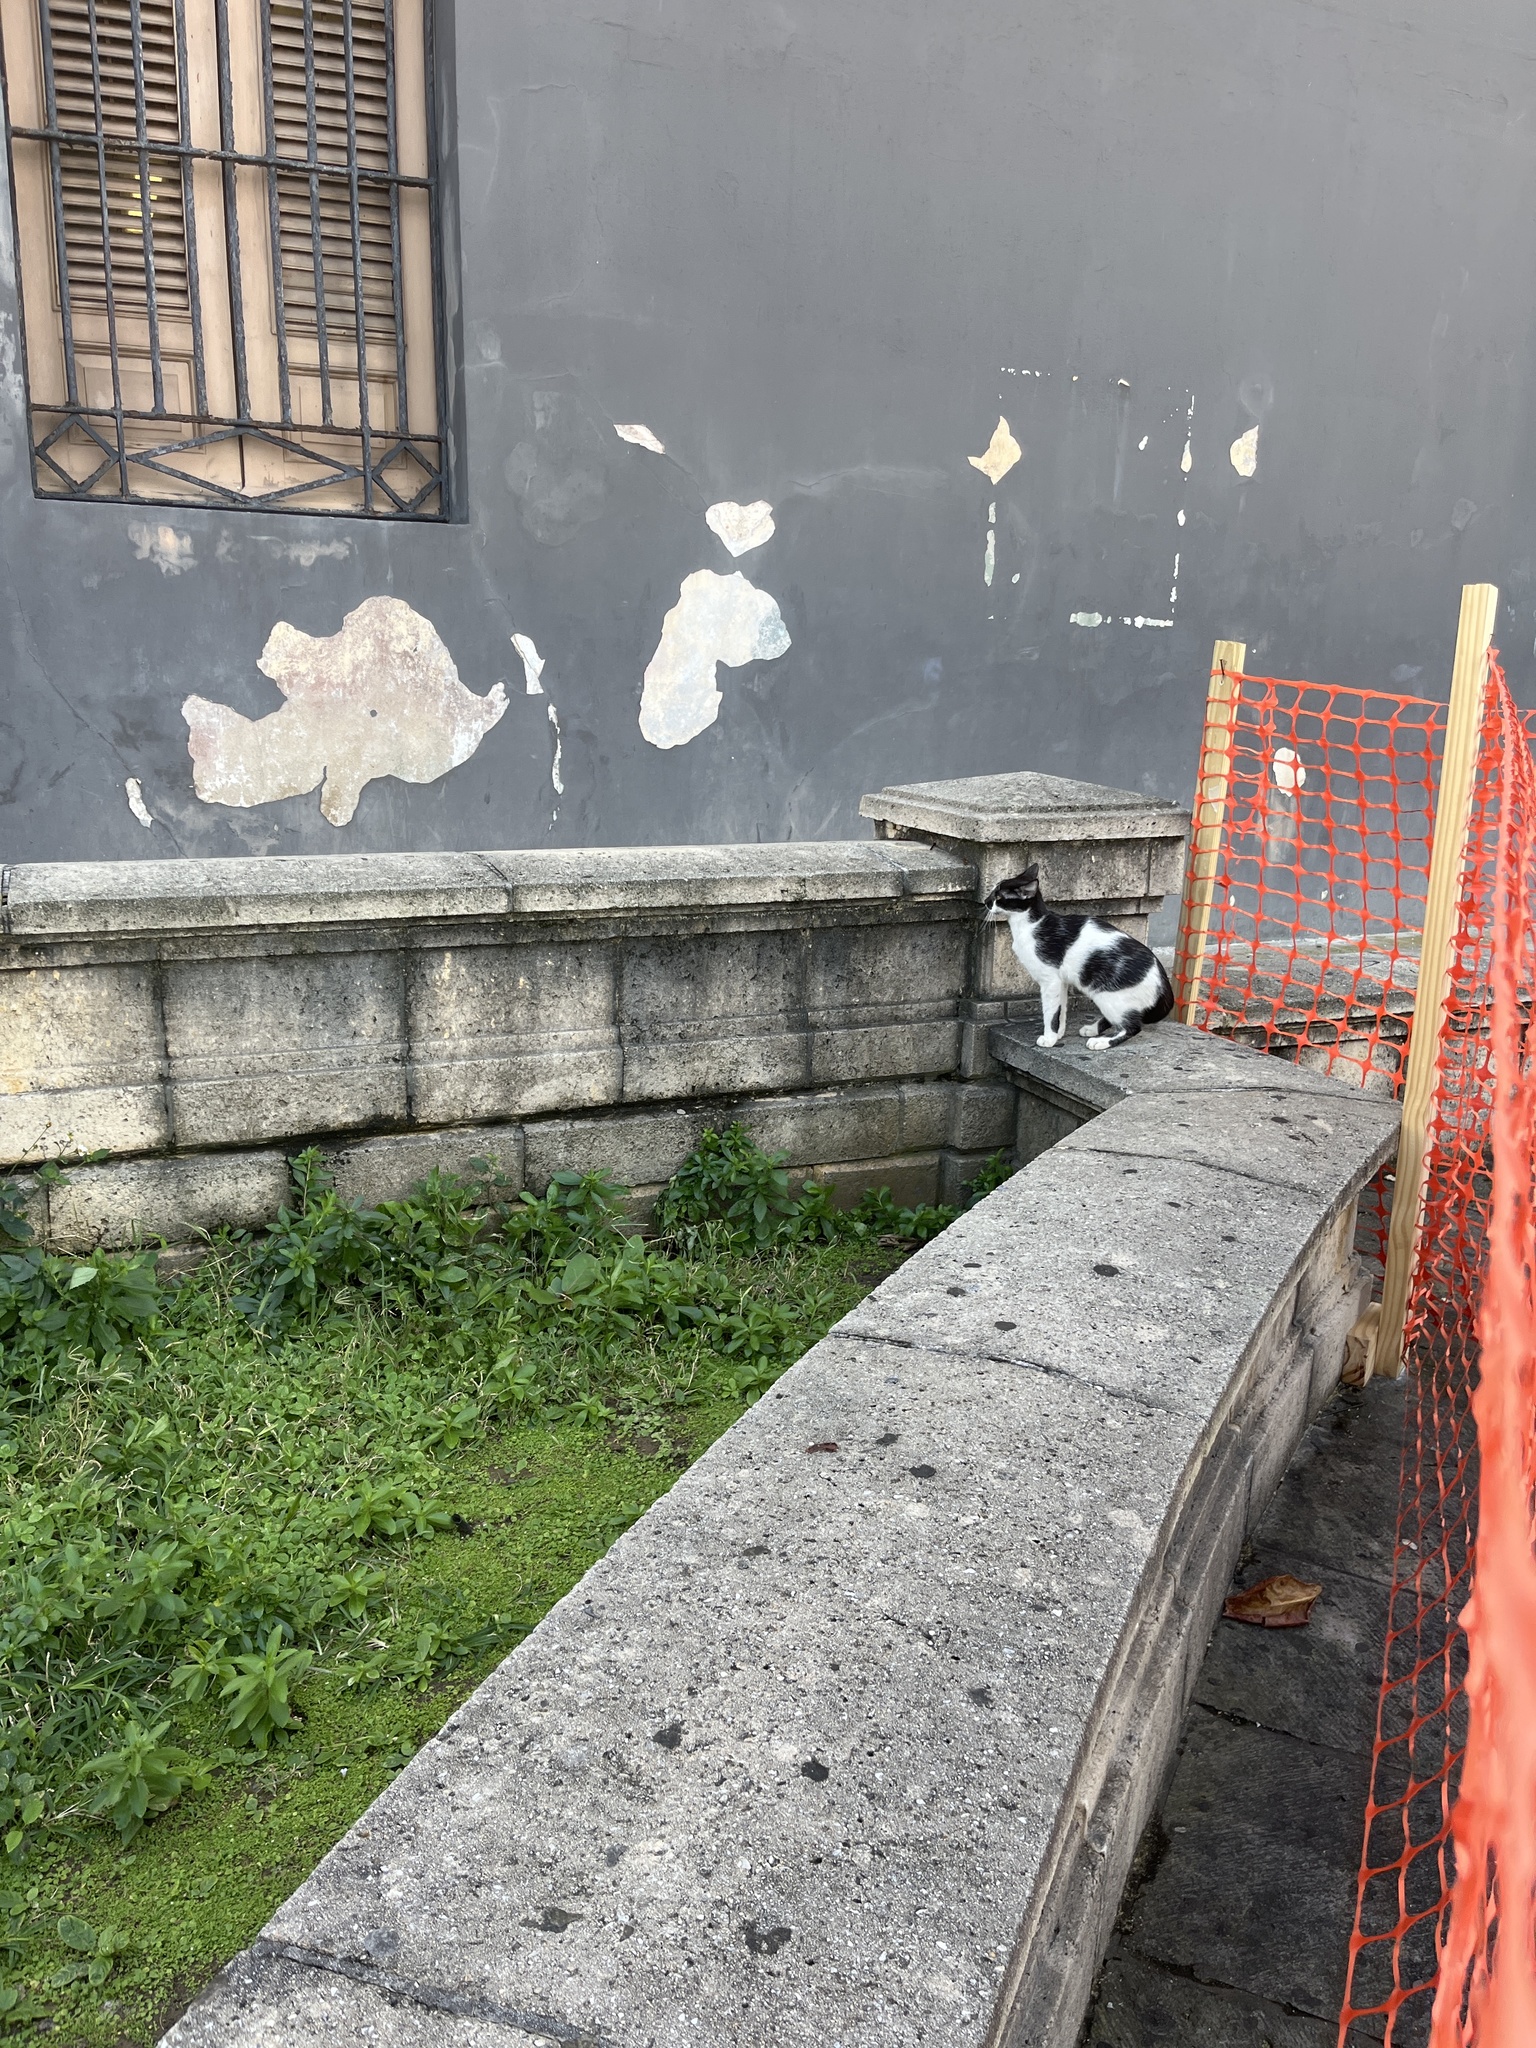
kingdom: Animalia
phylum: Chordata
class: Mammalia
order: Carnivora
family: Felidae
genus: Felis
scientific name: Felis catus
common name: Domestic cat
